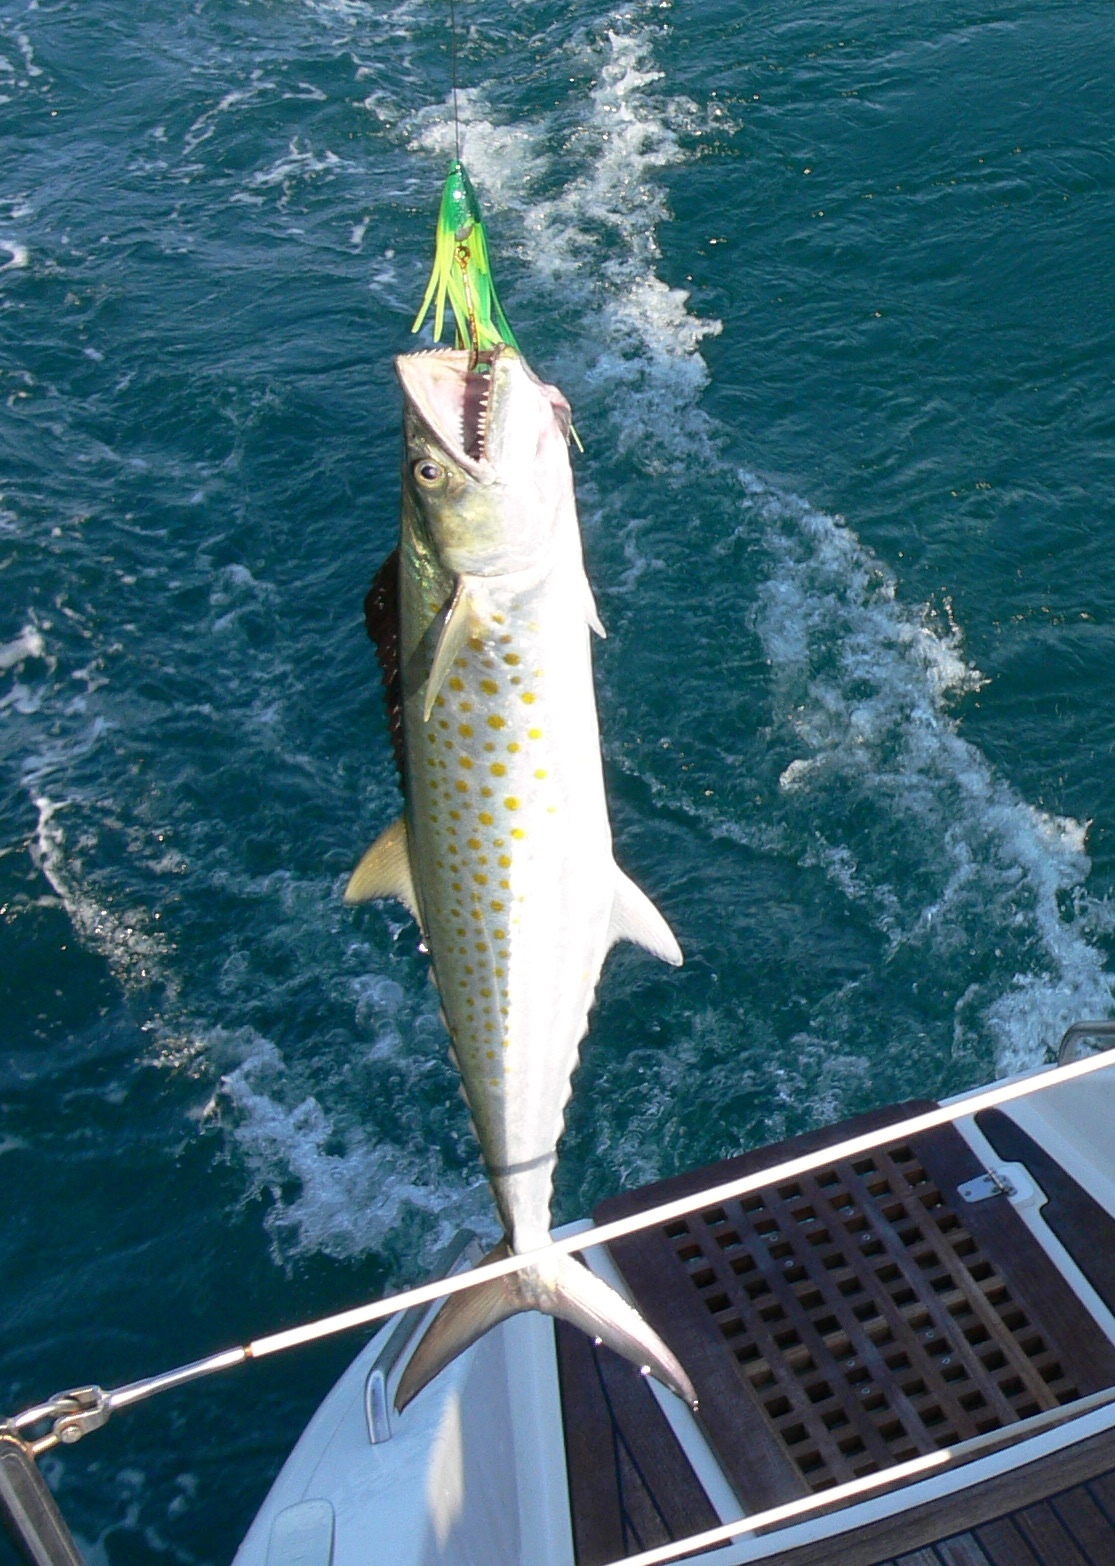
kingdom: Animalia
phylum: Chordata
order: Perciformes
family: Scombridae
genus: Scomberomorus
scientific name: Scomberomorus sierra
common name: Pacific sierra
